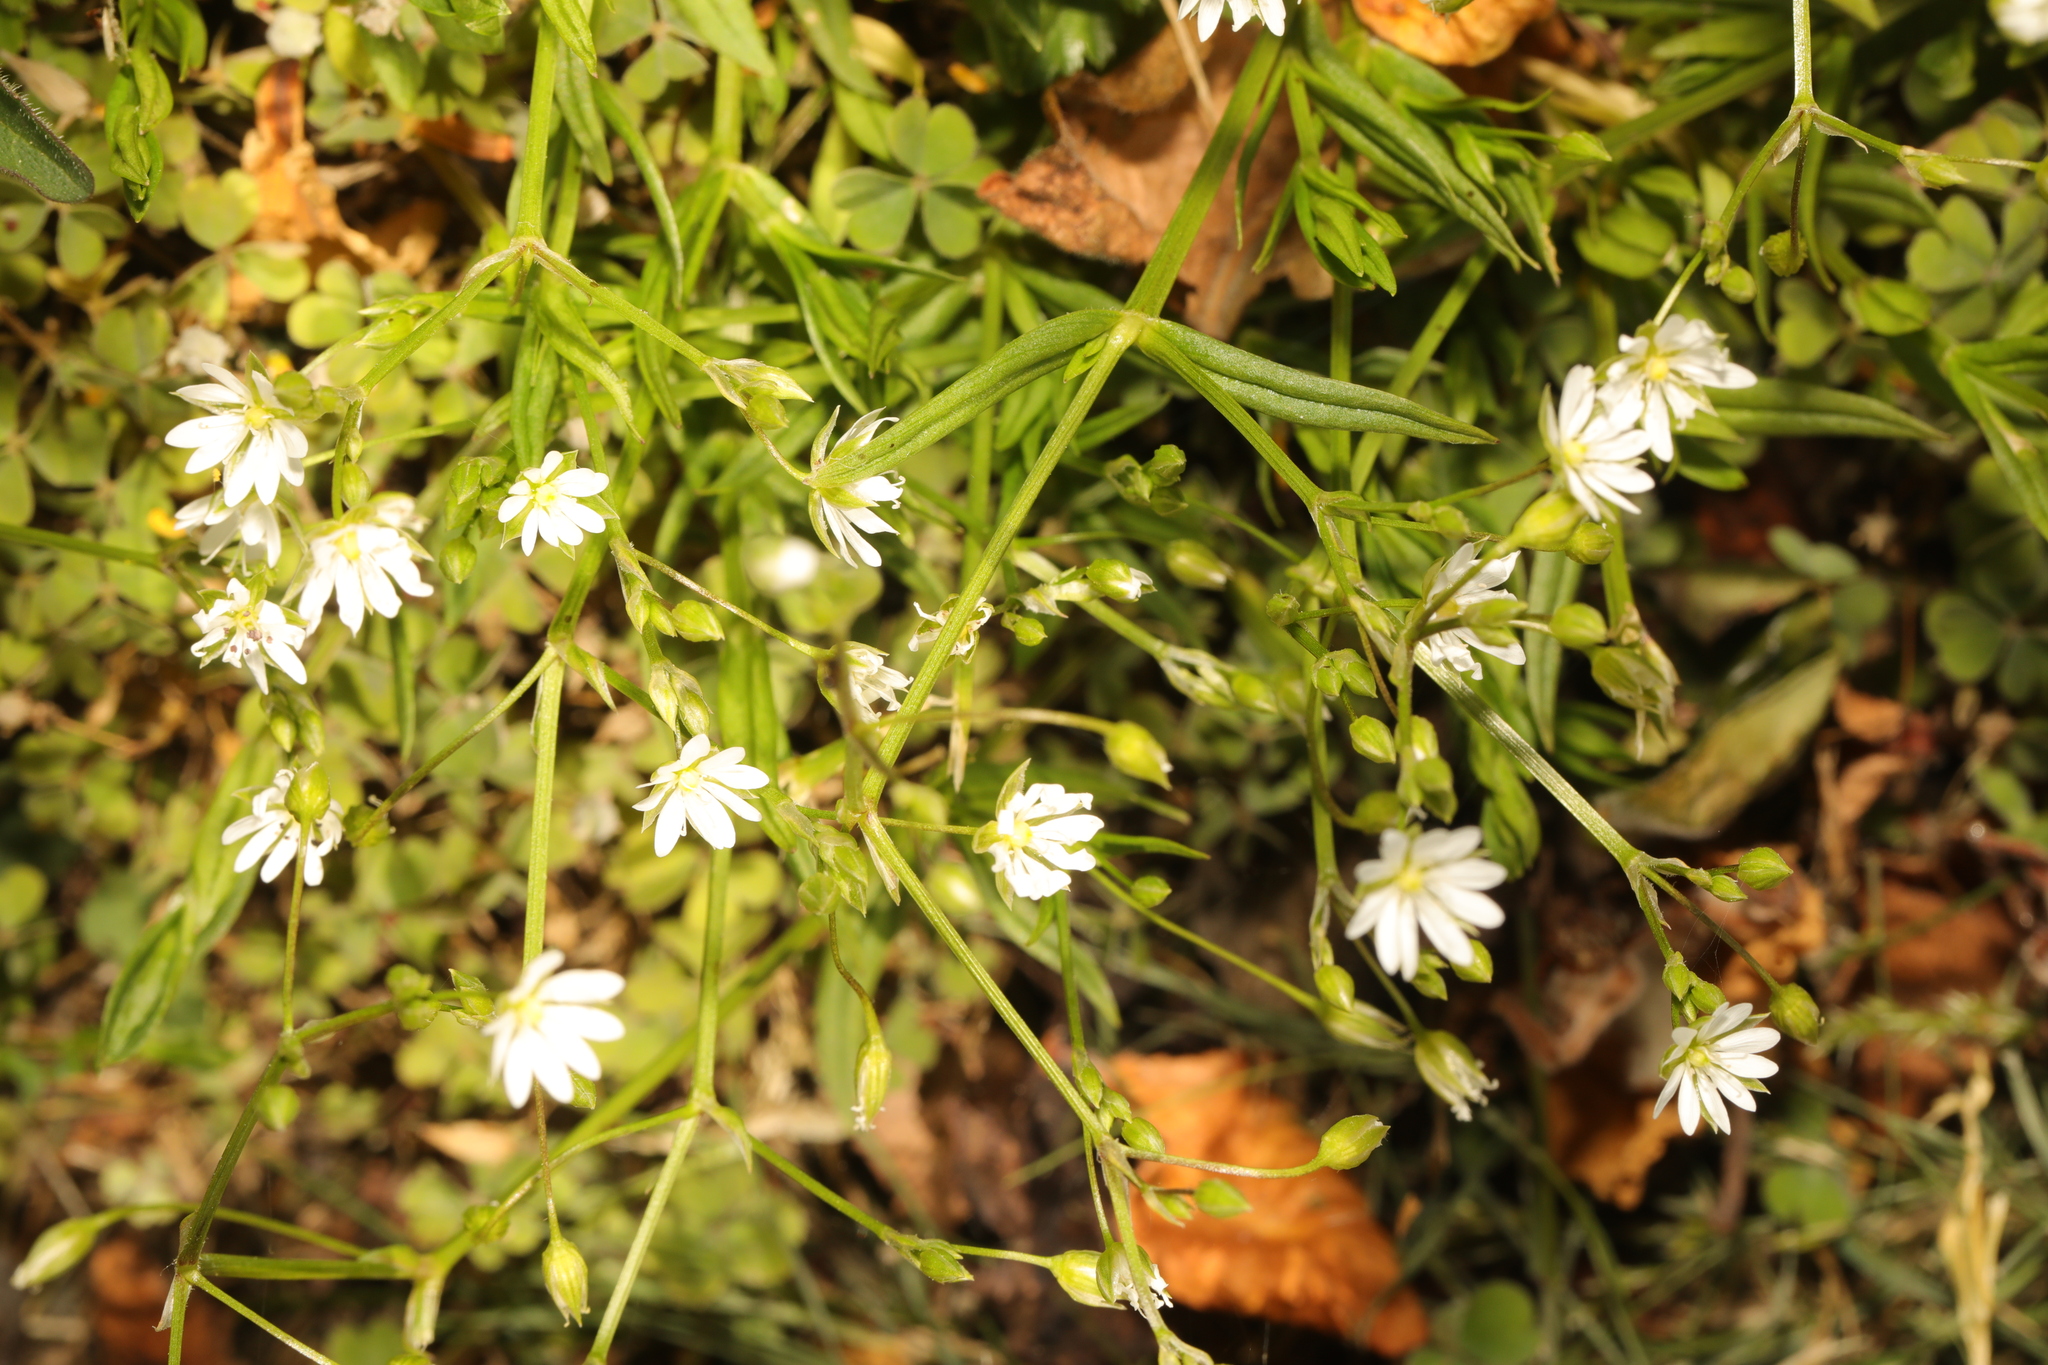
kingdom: Plantae
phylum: Tracheophyta
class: Magnoliopsida
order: Caryophyllales
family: Caryophyllaceae
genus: Stellaria
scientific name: Stellaria graminea
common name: Grass-like starwort
